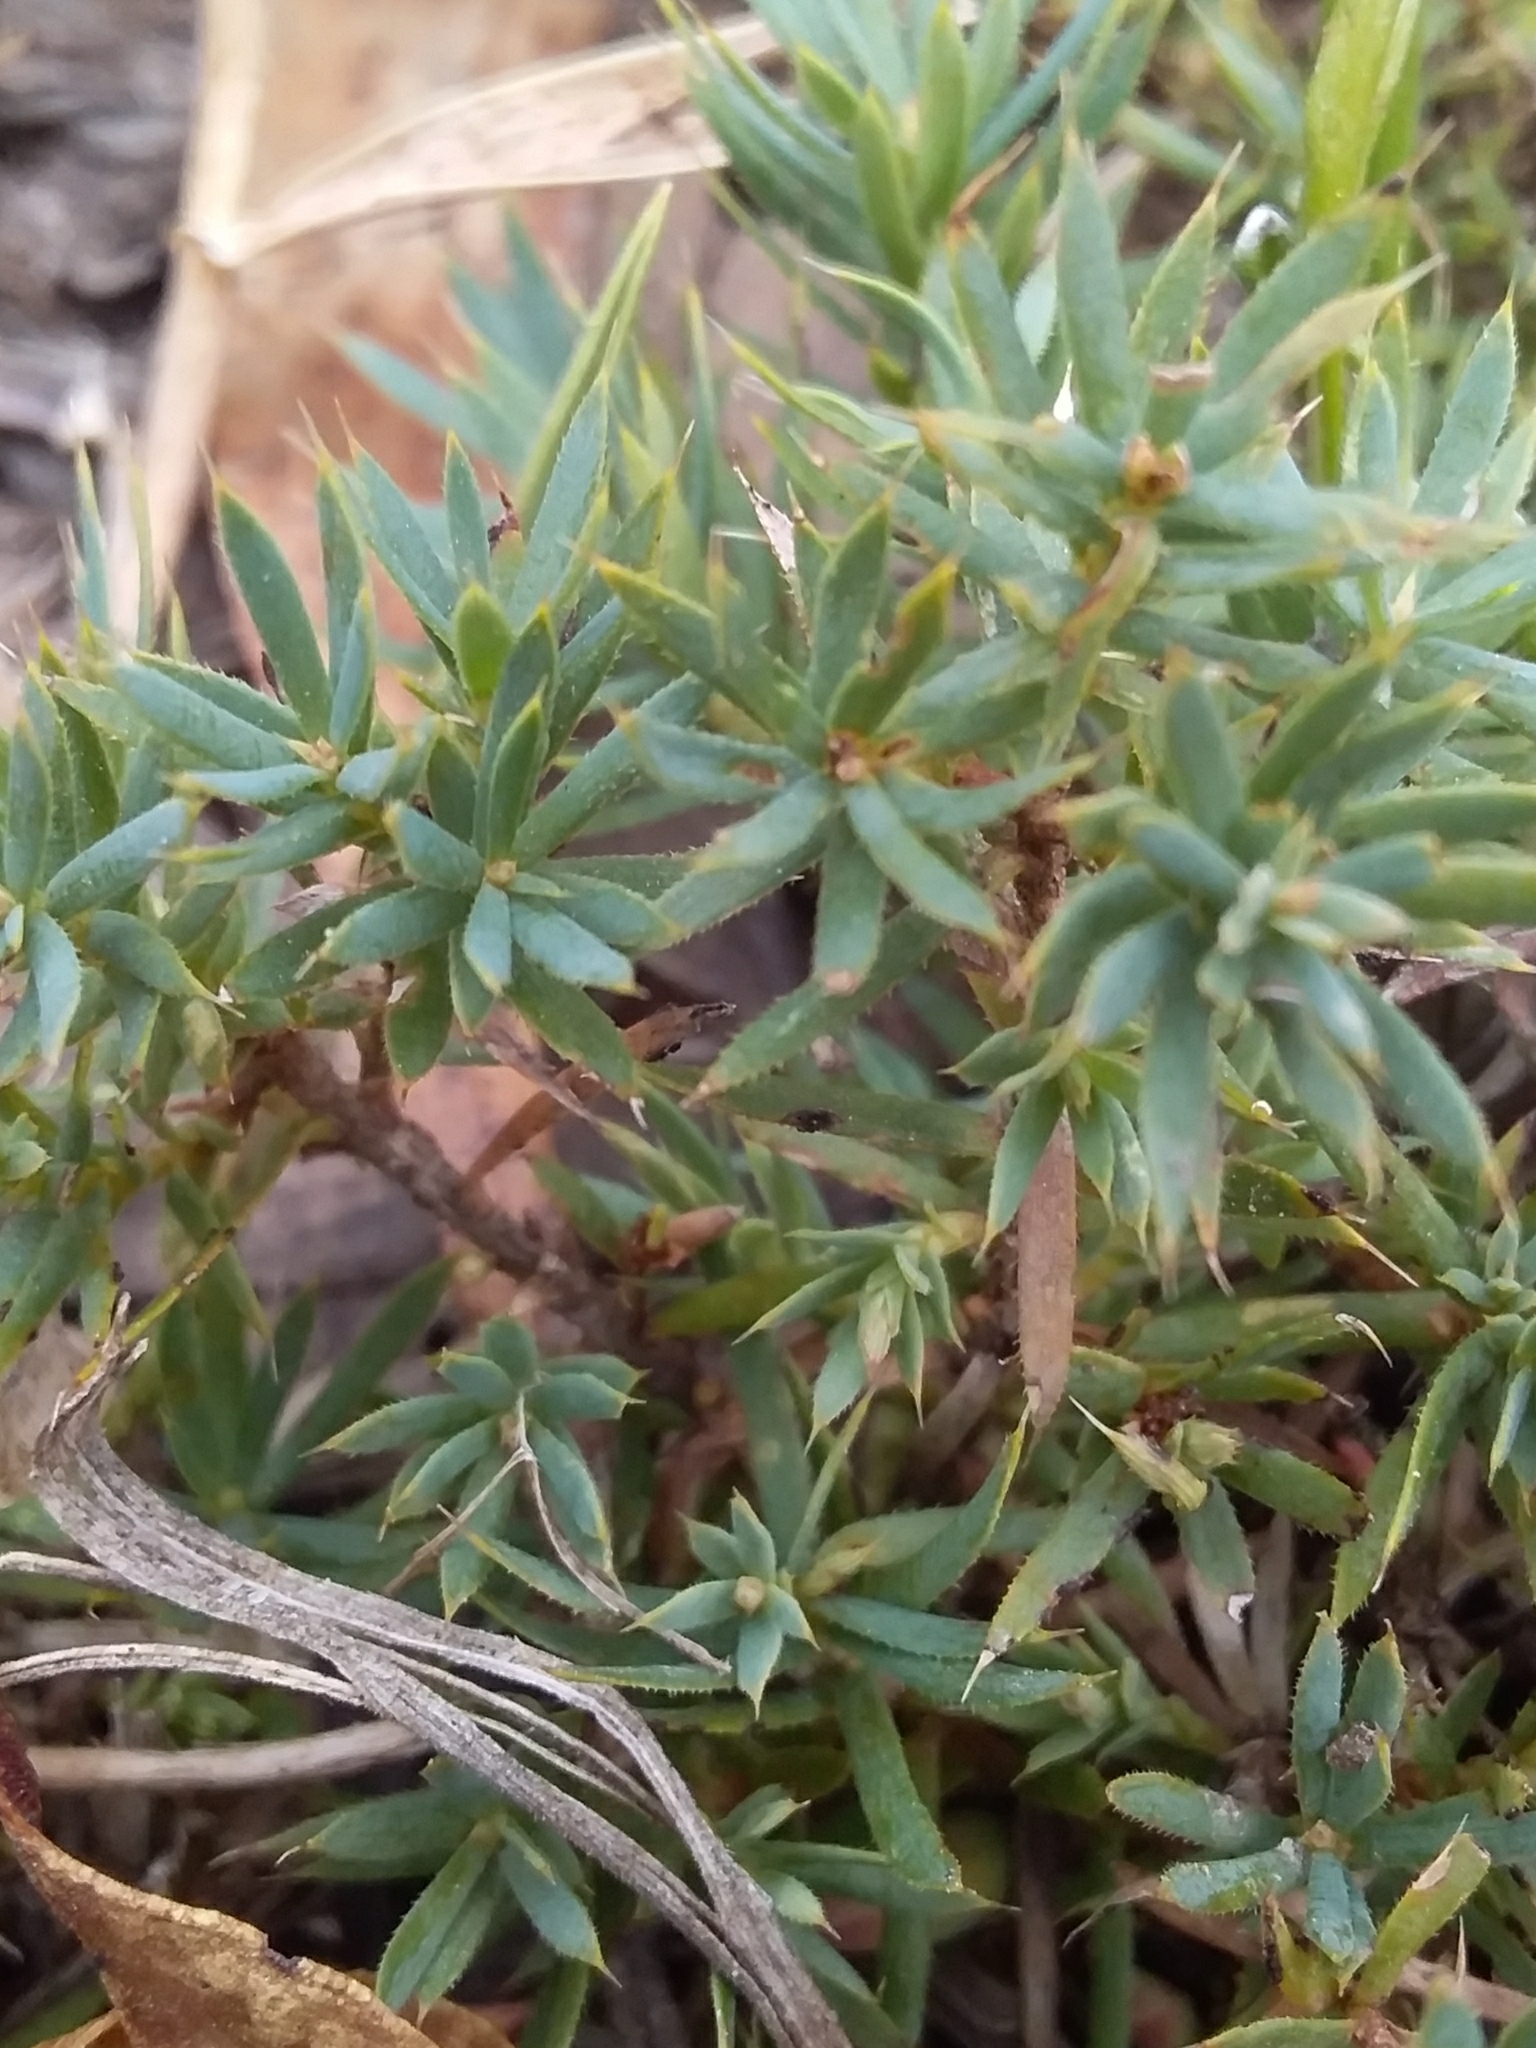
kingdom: Plantae
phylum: Tracheophyta
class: Magnoliopsida
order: Ericales
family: Ericaceae
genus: Styphelia
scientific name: Styphelia humifusa
